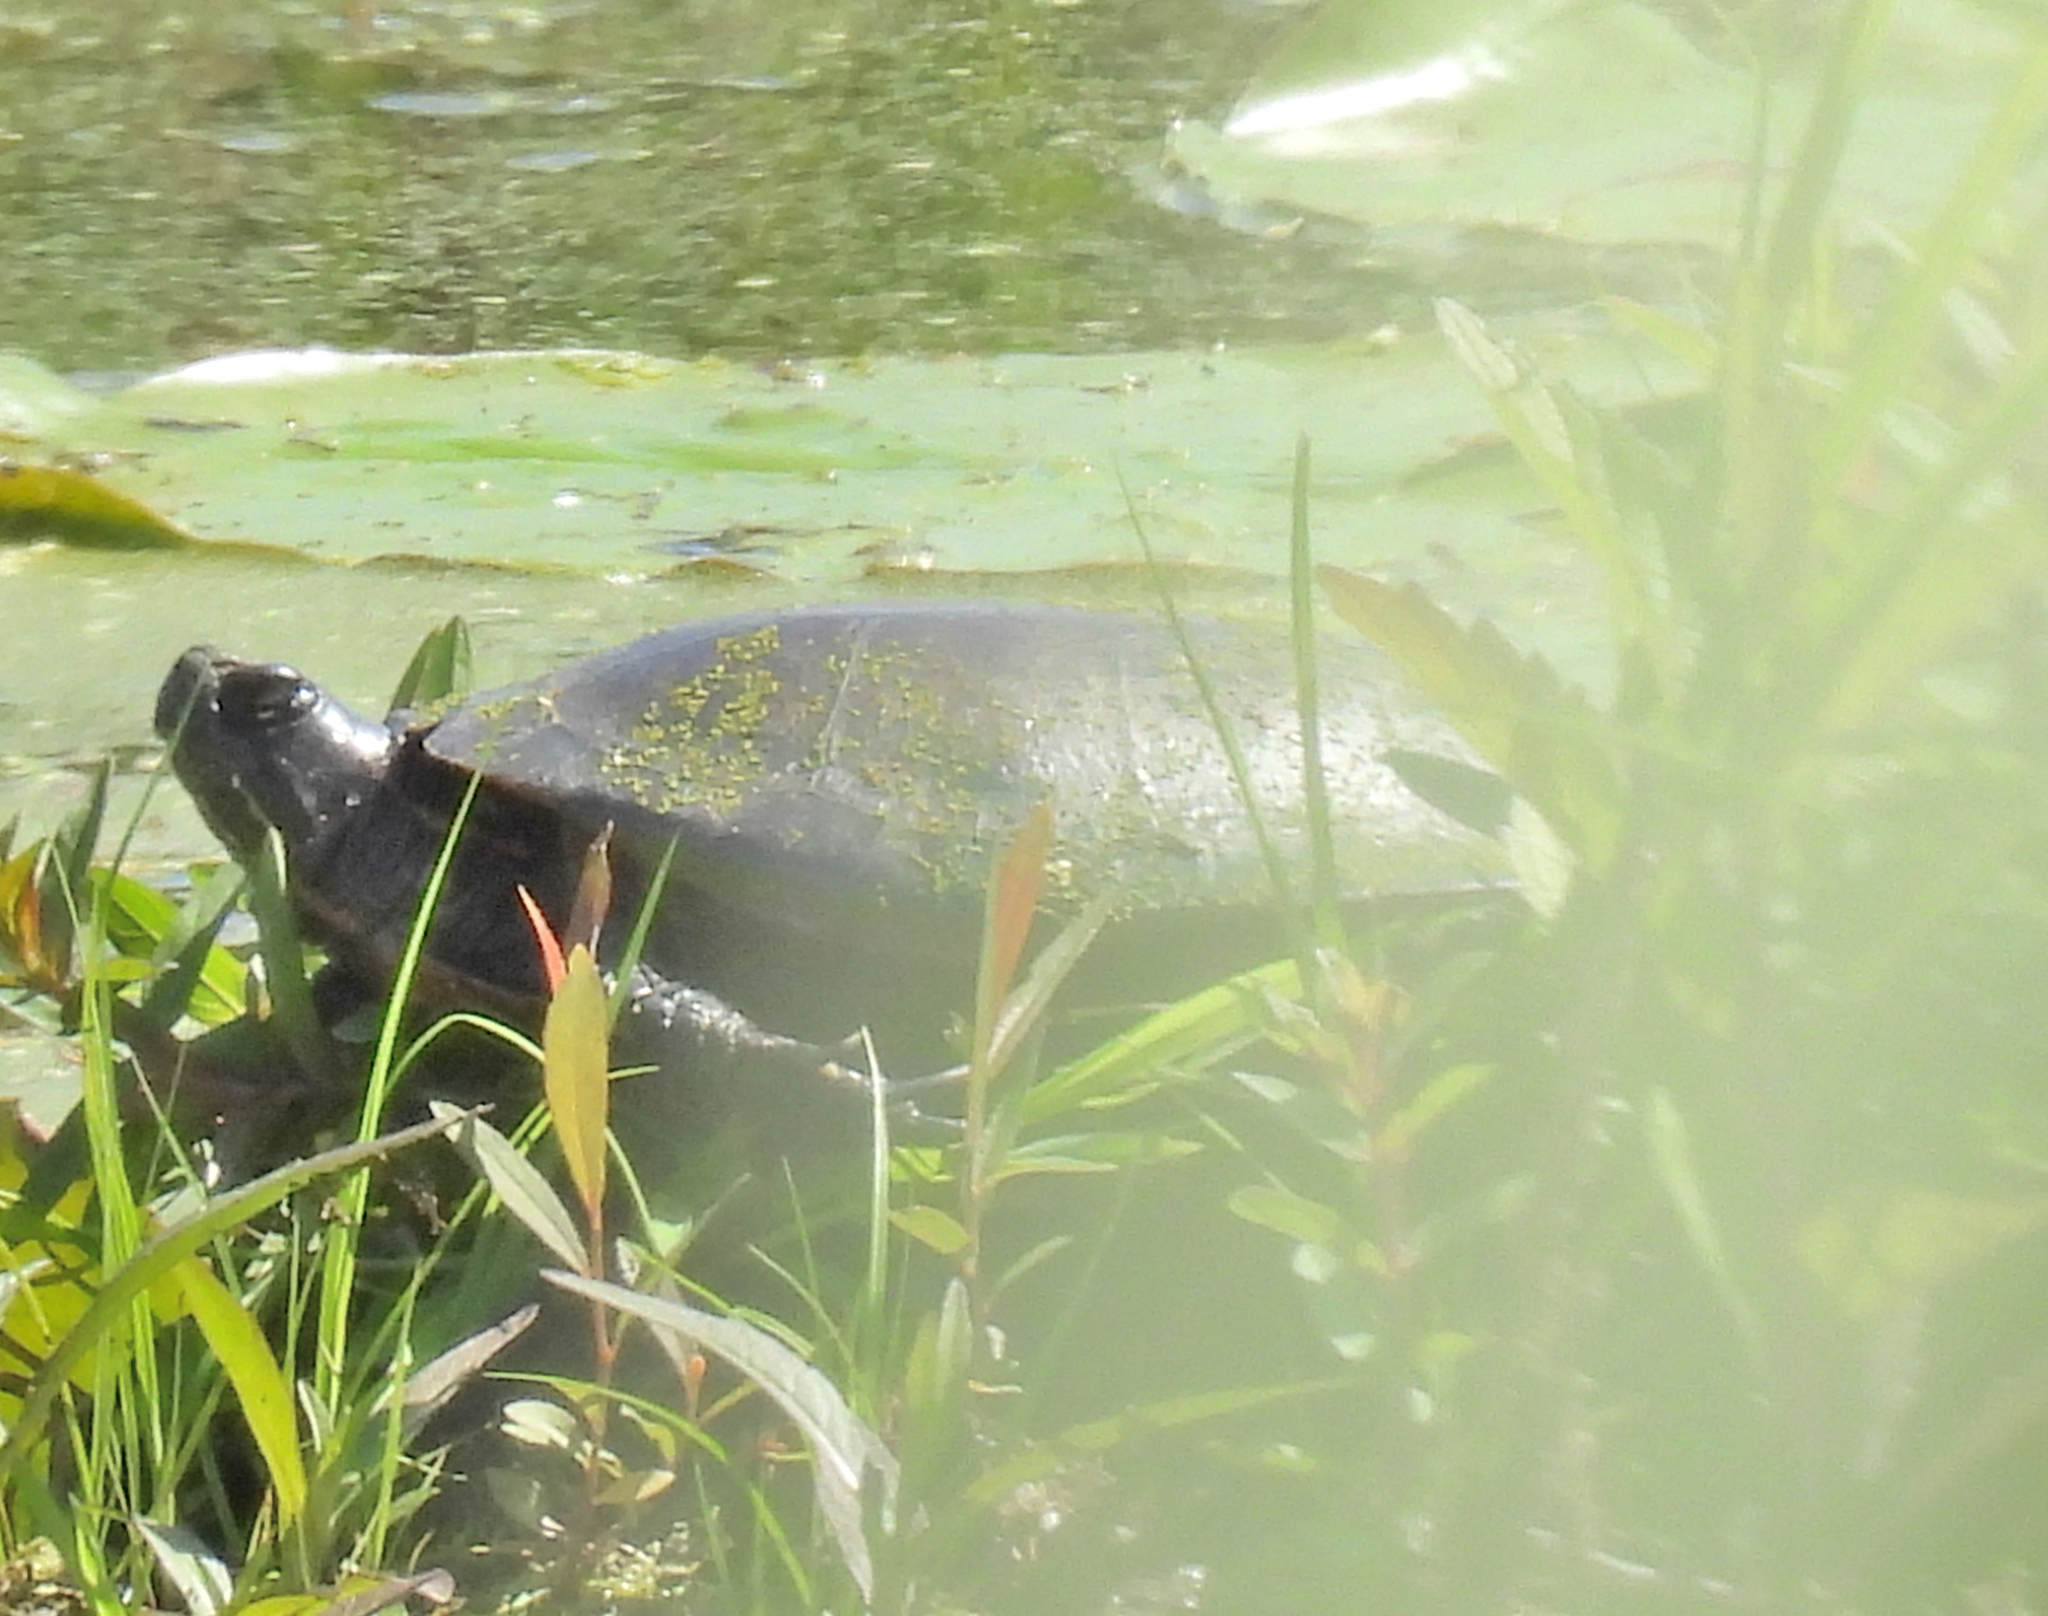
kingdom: Animalia
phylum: Chordata
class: Testudines
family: Emydidae
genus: Chrysemys
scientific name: Chrysemys picta
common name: Painted turtle
